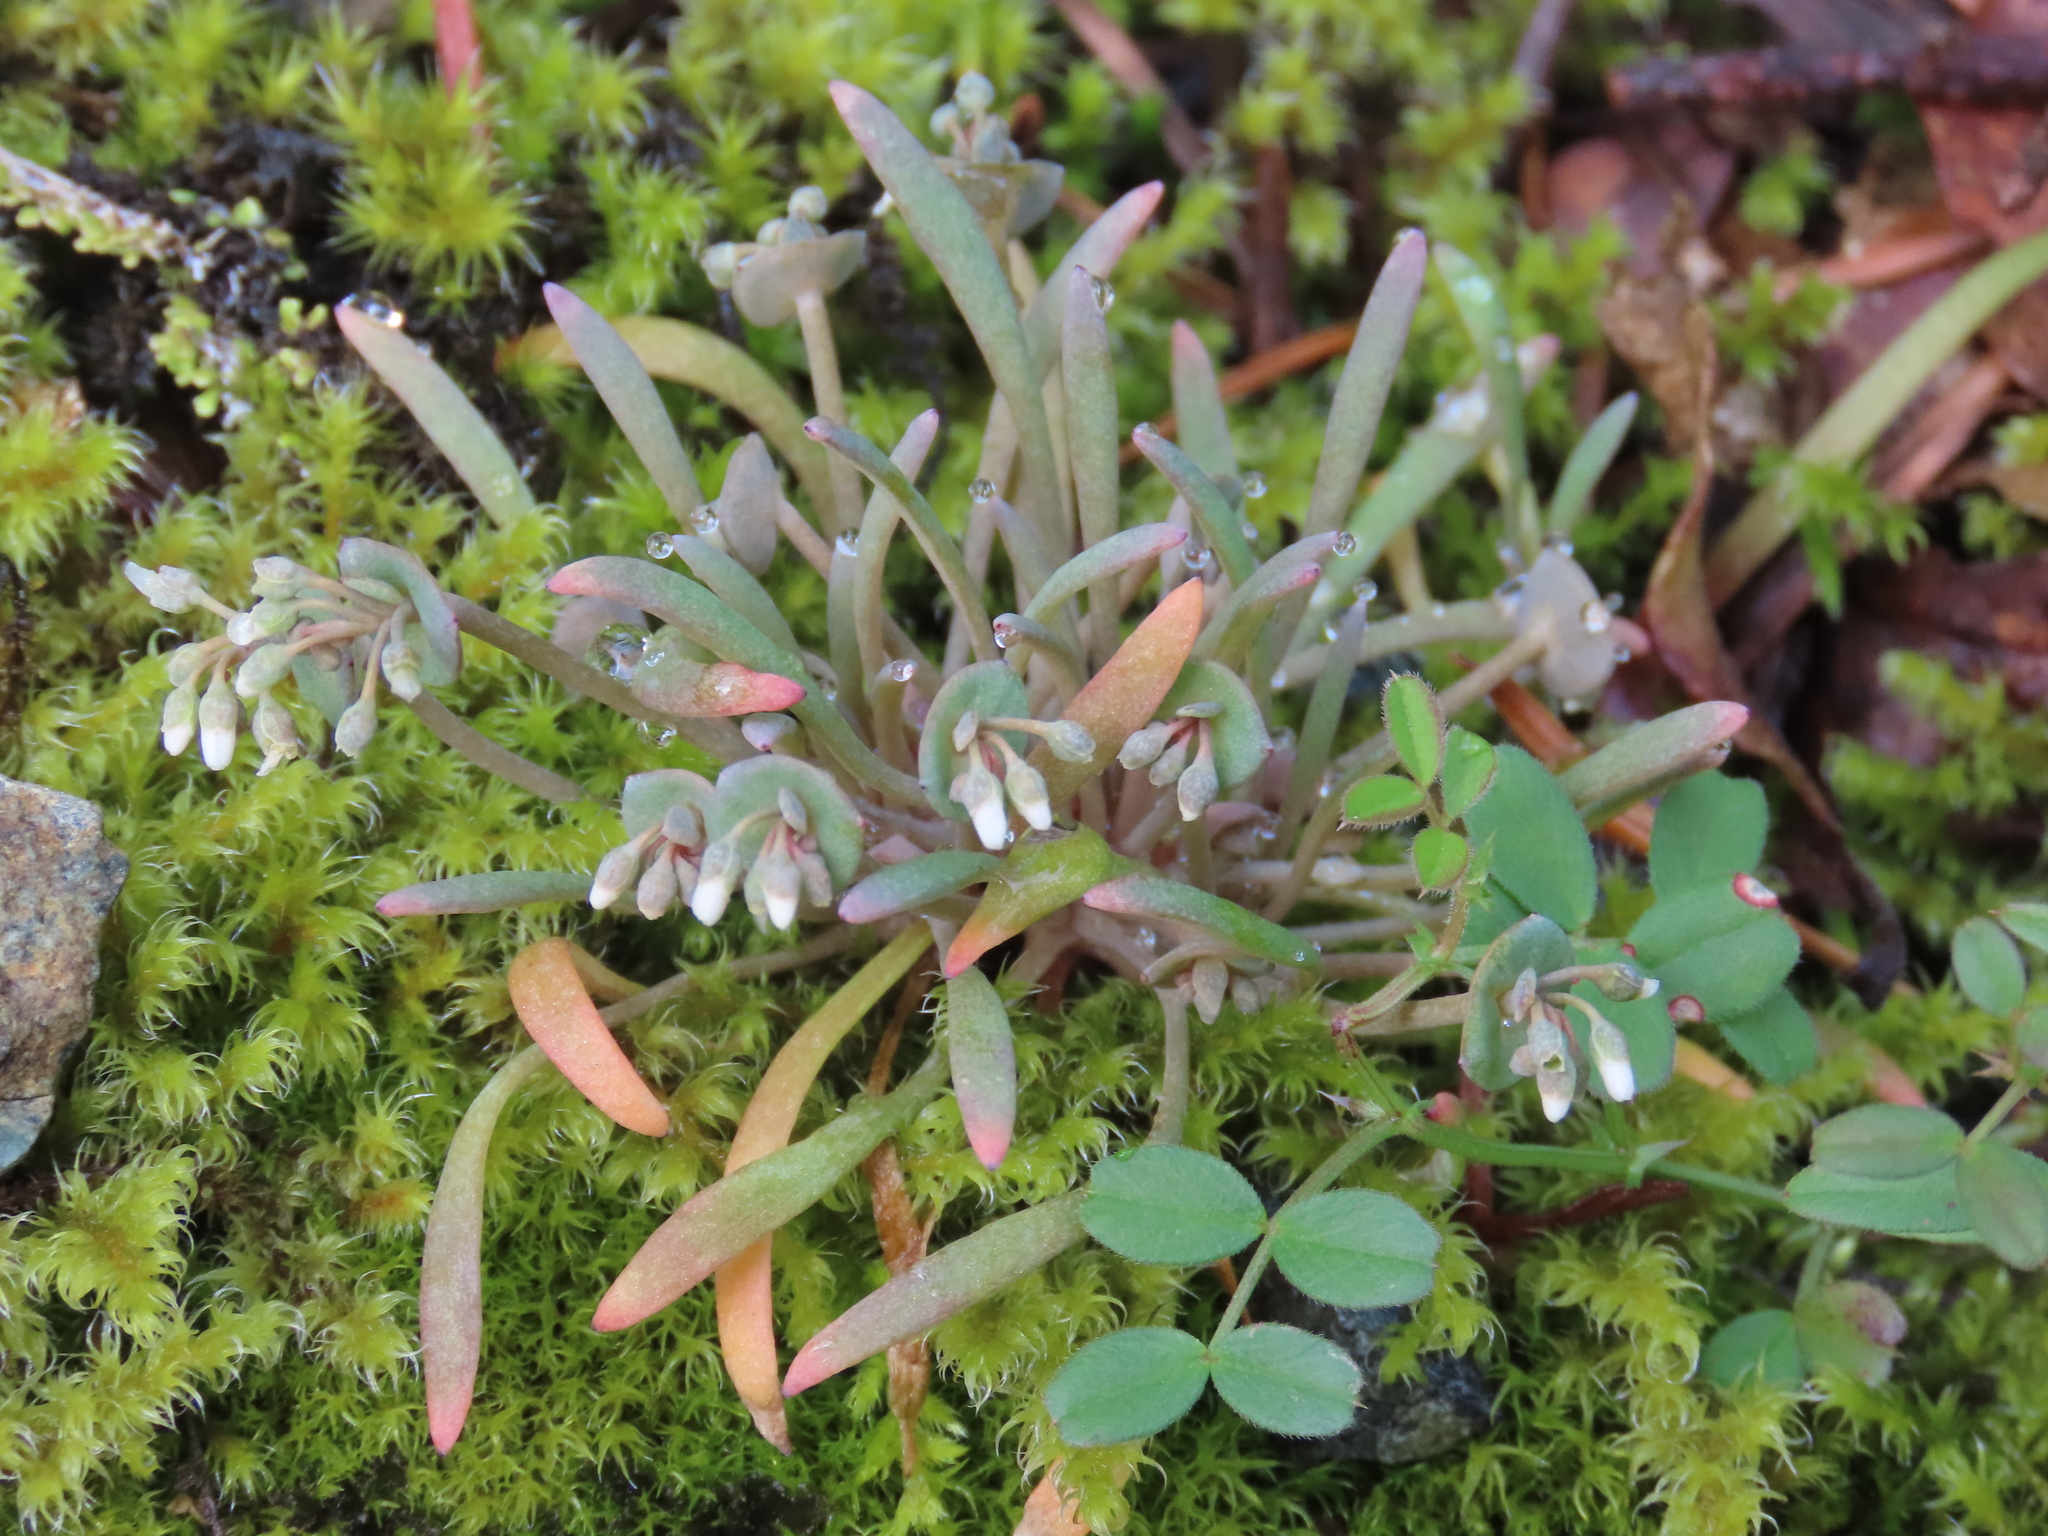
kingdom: Plantae
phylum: Tracheophyta
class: Magnoliopsida
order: Caryophyllales
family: Montiaceae
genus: Claytonia
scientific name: Claytonia exigua
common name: Pale spring beauty
